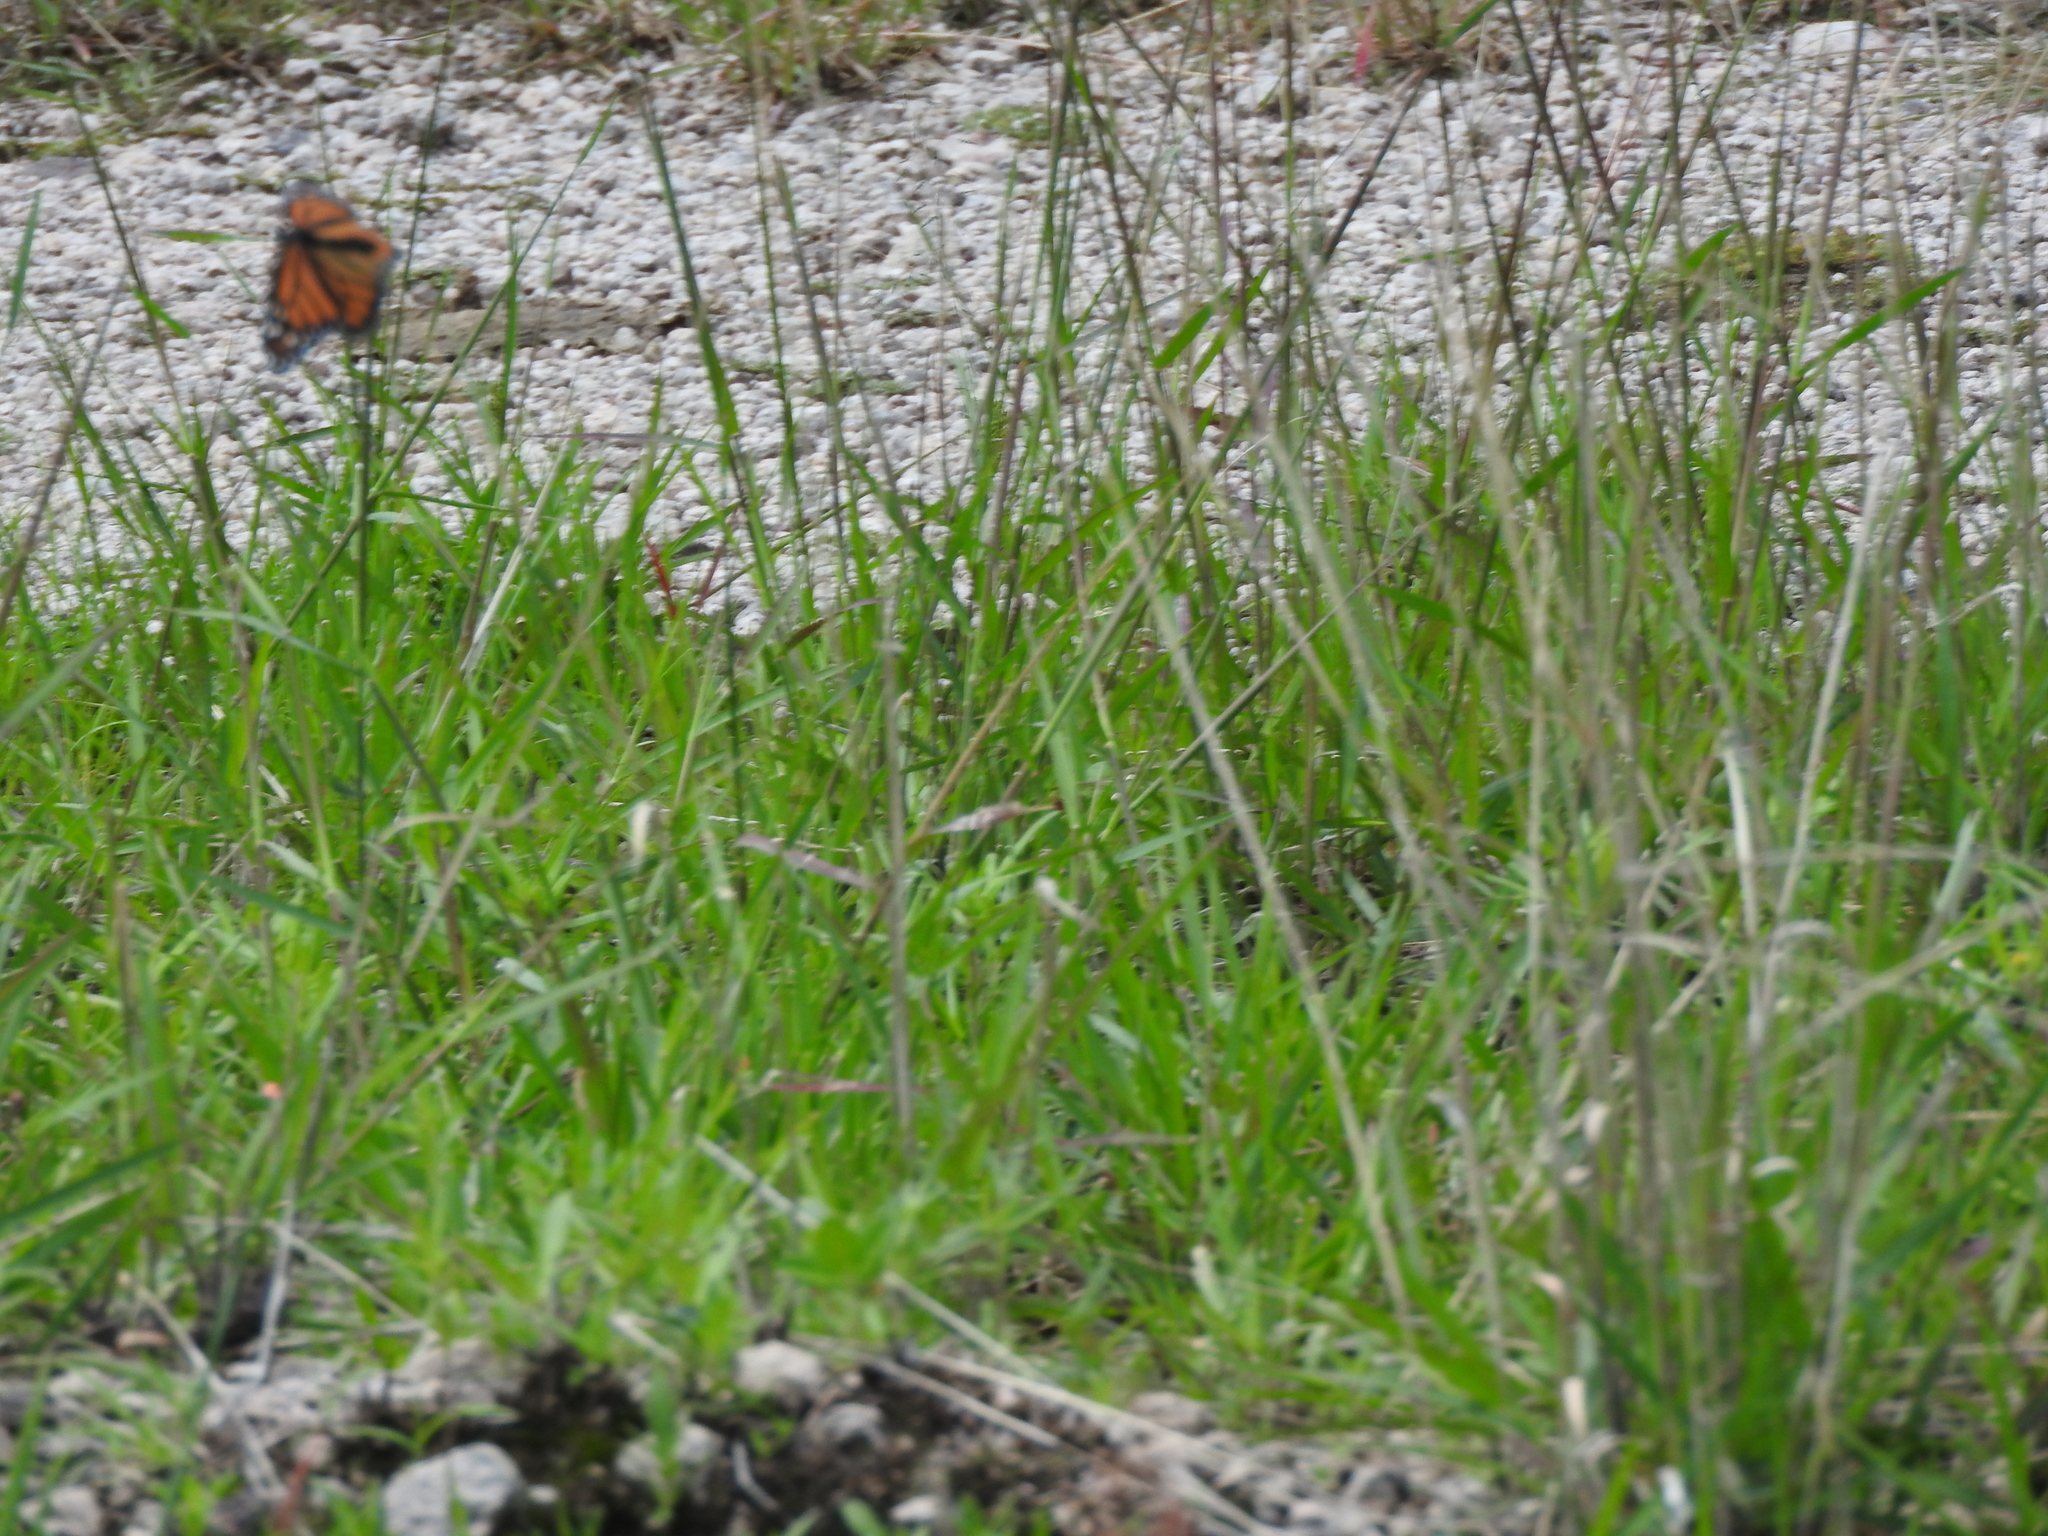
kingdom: Animalia
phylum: Arthropoda
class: Insecta
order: Lepidoptera
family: Nymphalidae
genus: Danaus
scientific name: Danaus plexippus
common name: Monarch
